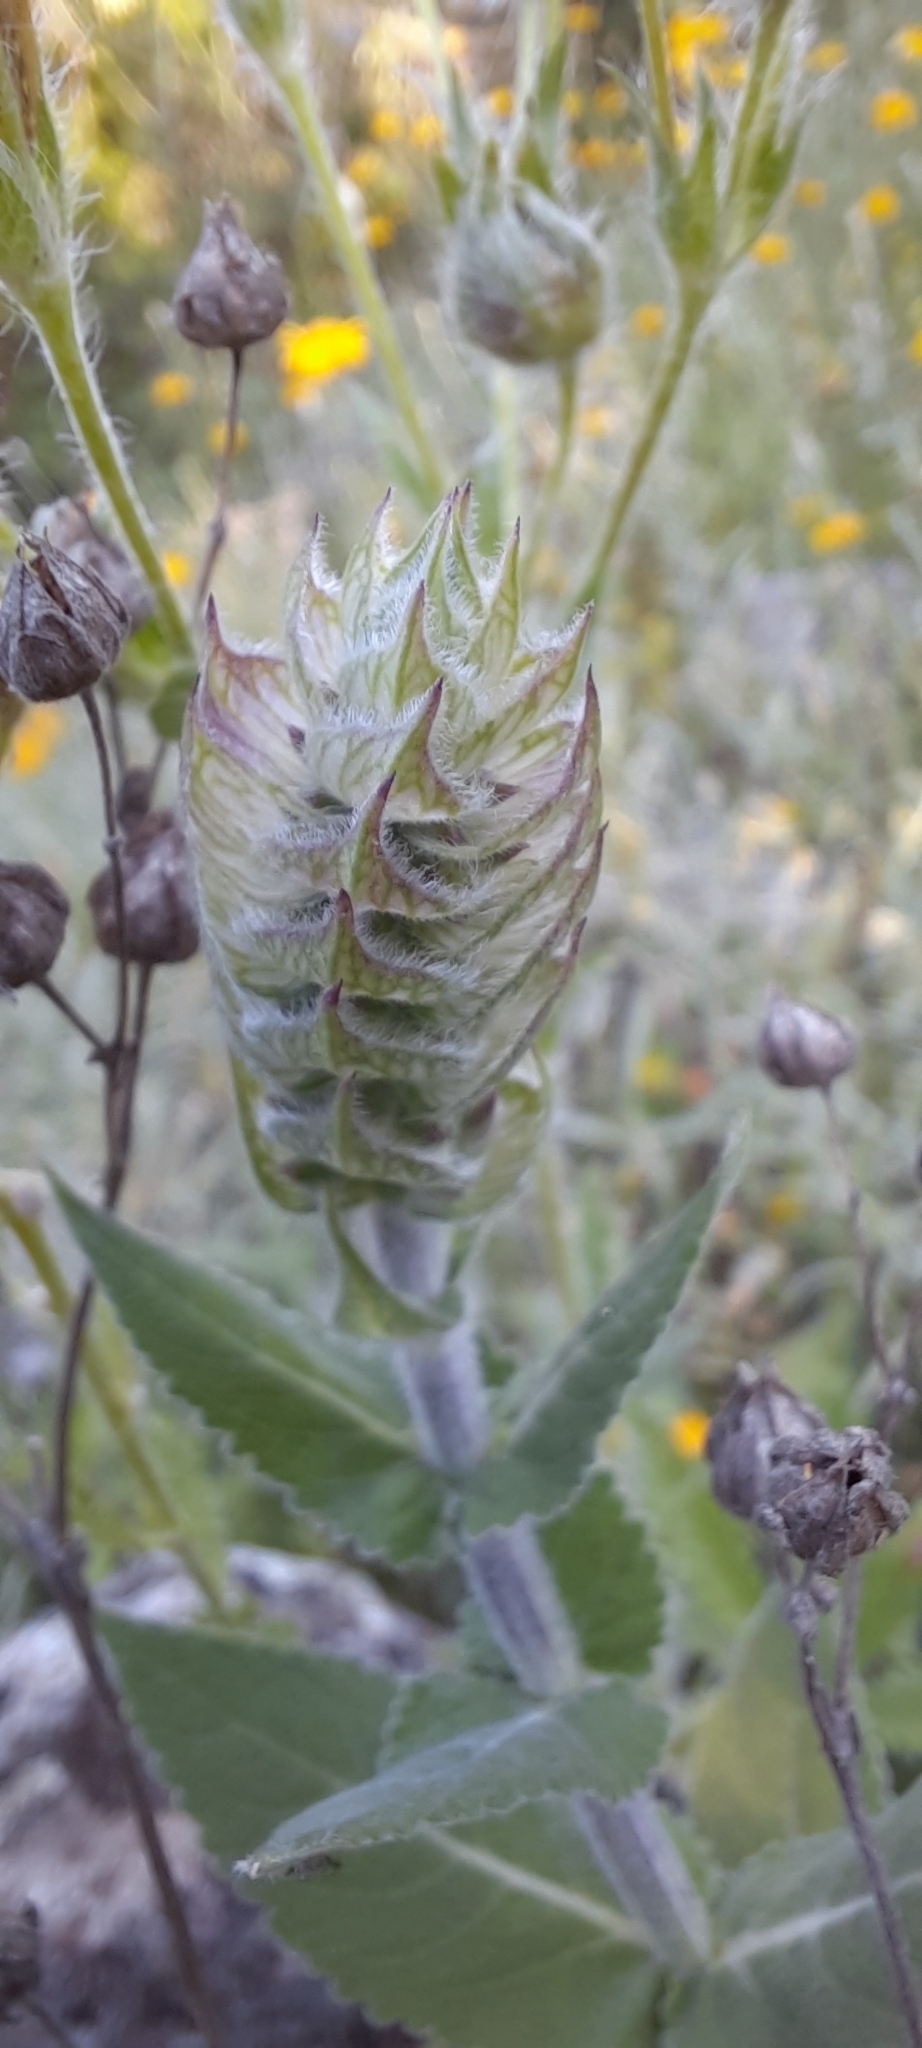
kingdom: Plantae
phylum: Tracheophyta
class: Magnoliopsida
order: Lamiales
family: Lamiaceae
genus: Salvia
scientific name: Salvia sclarea
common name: Clary
